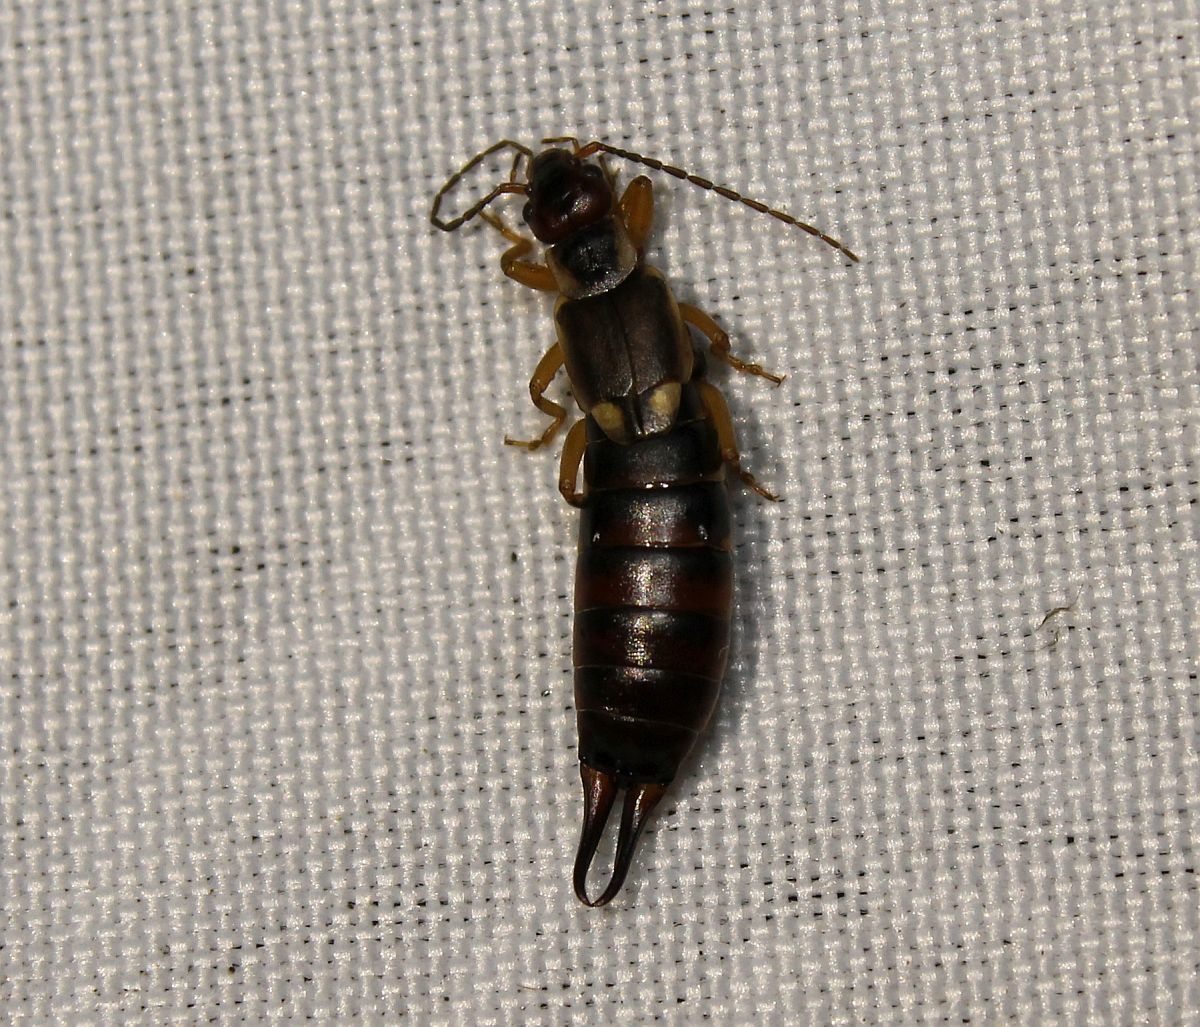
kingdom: Animalia
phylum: Arthropoda
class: Insecta
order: Dermaptera
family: Forficulidae
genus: Forficula
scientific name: Forficula
